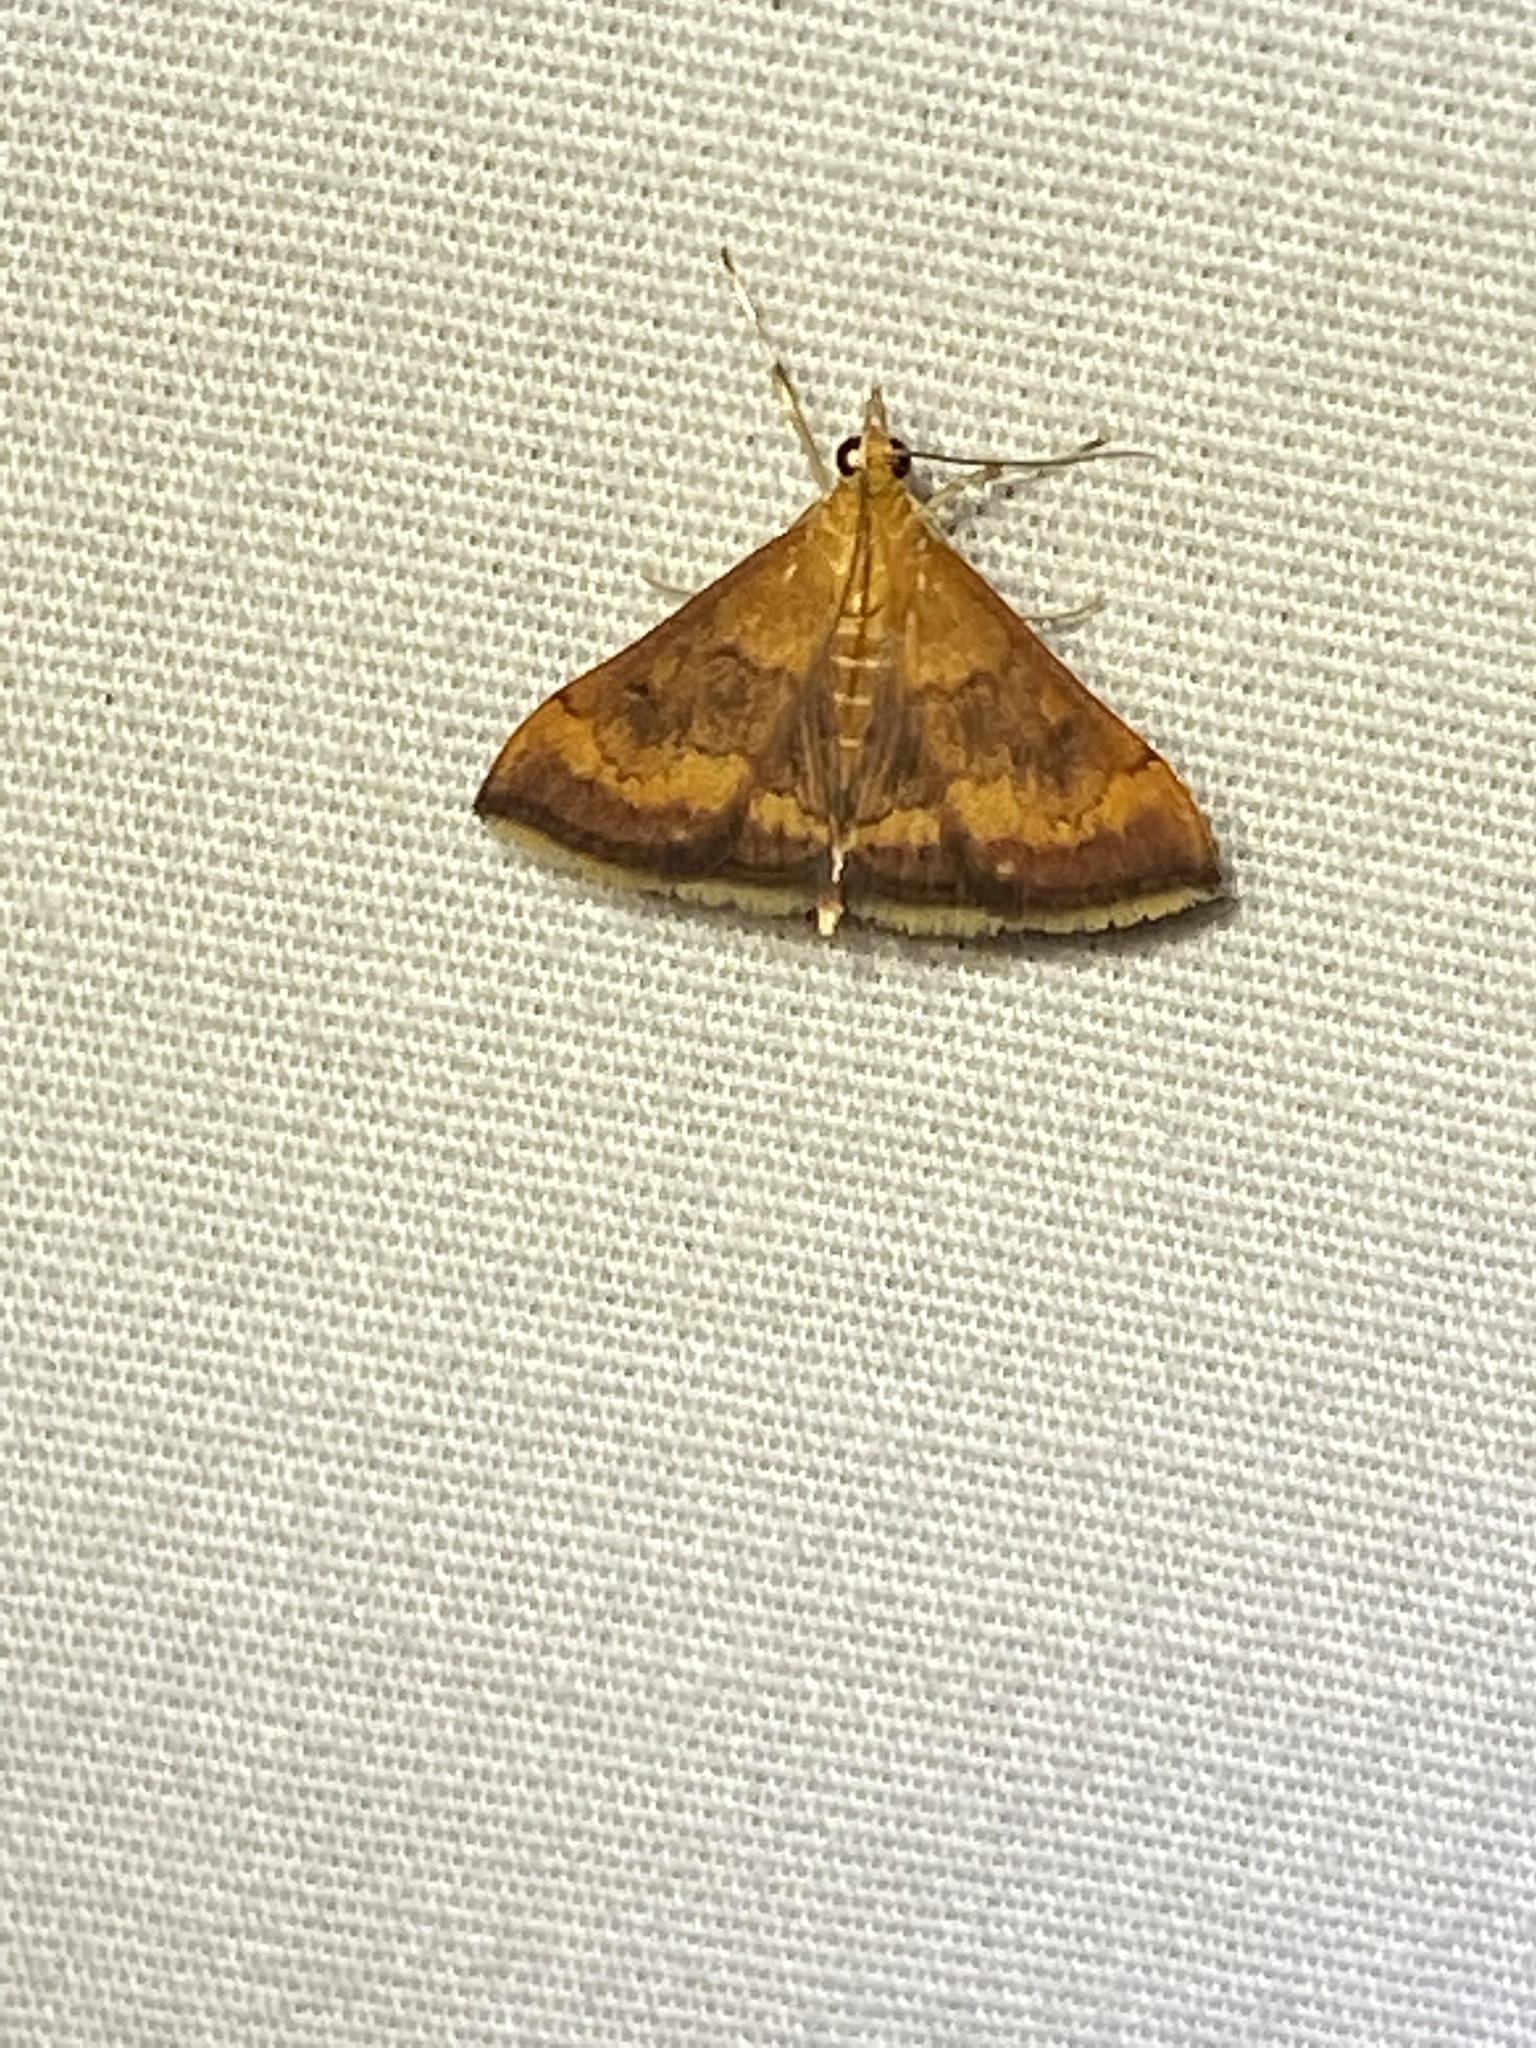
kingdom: Animalia
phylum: Arthropoda
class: Insecta
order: Lepidoptera
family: Crambidae
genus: Pyrausta
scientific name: Pyrausta rubricalis
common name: Variable reddish pyrausta
